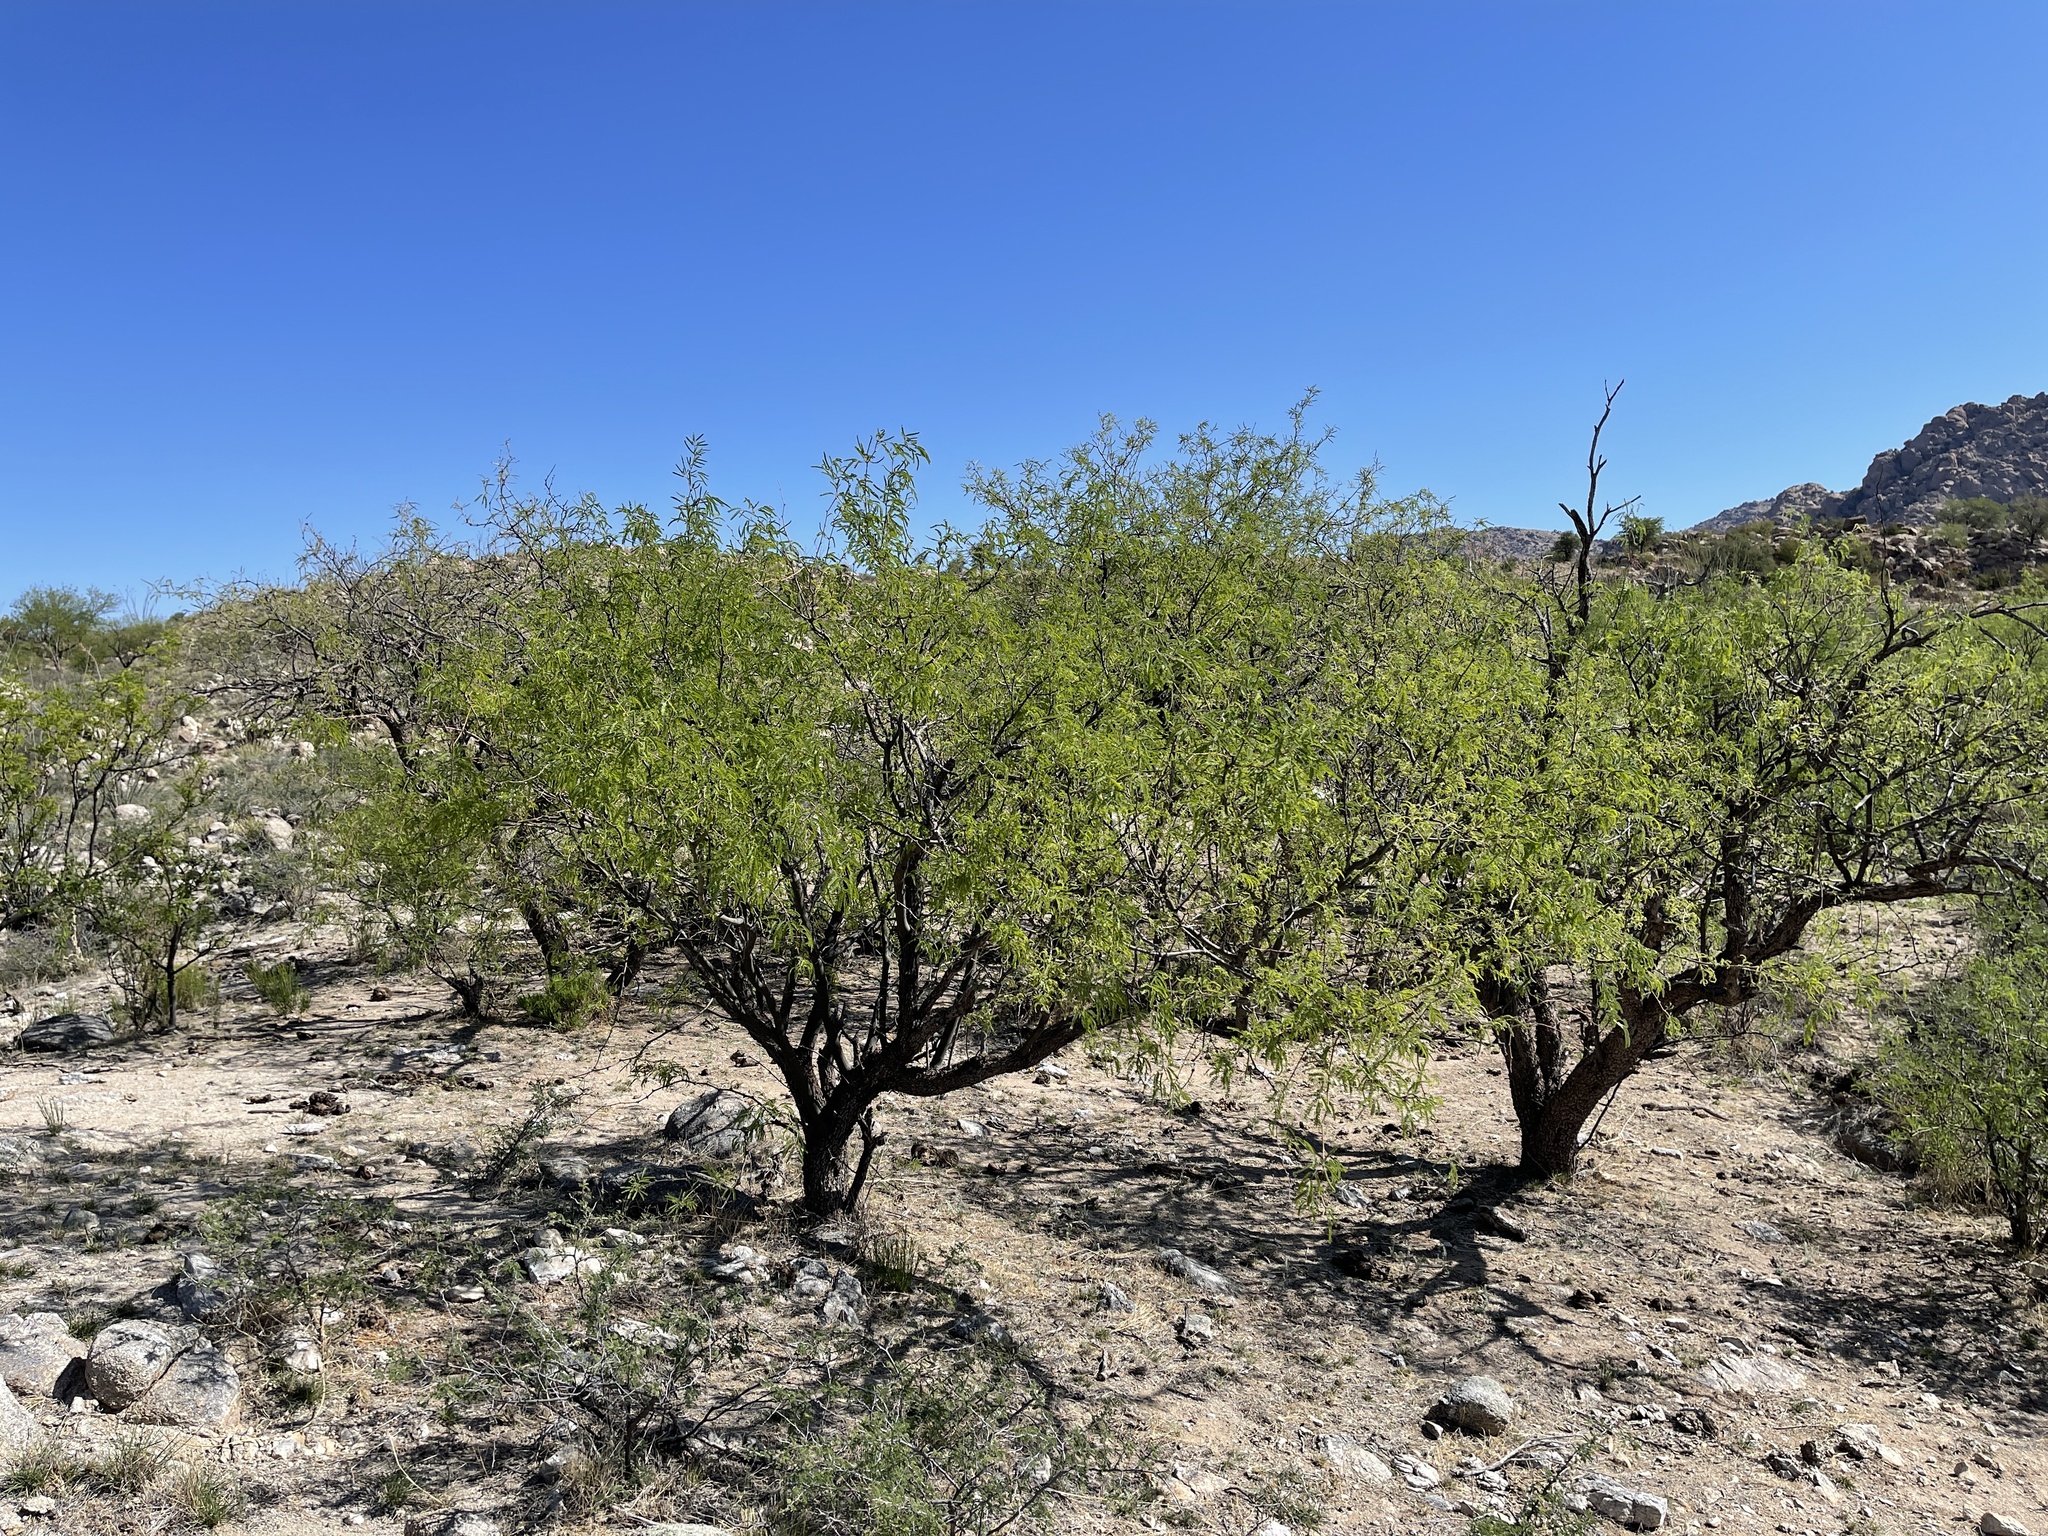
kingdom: Plantae
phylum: Tracheophyta
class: Magnoliopsida
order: Fabales
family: Fabaceae
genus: Prosopis
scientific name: Prosopis velutina
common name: Velvet mesquite
